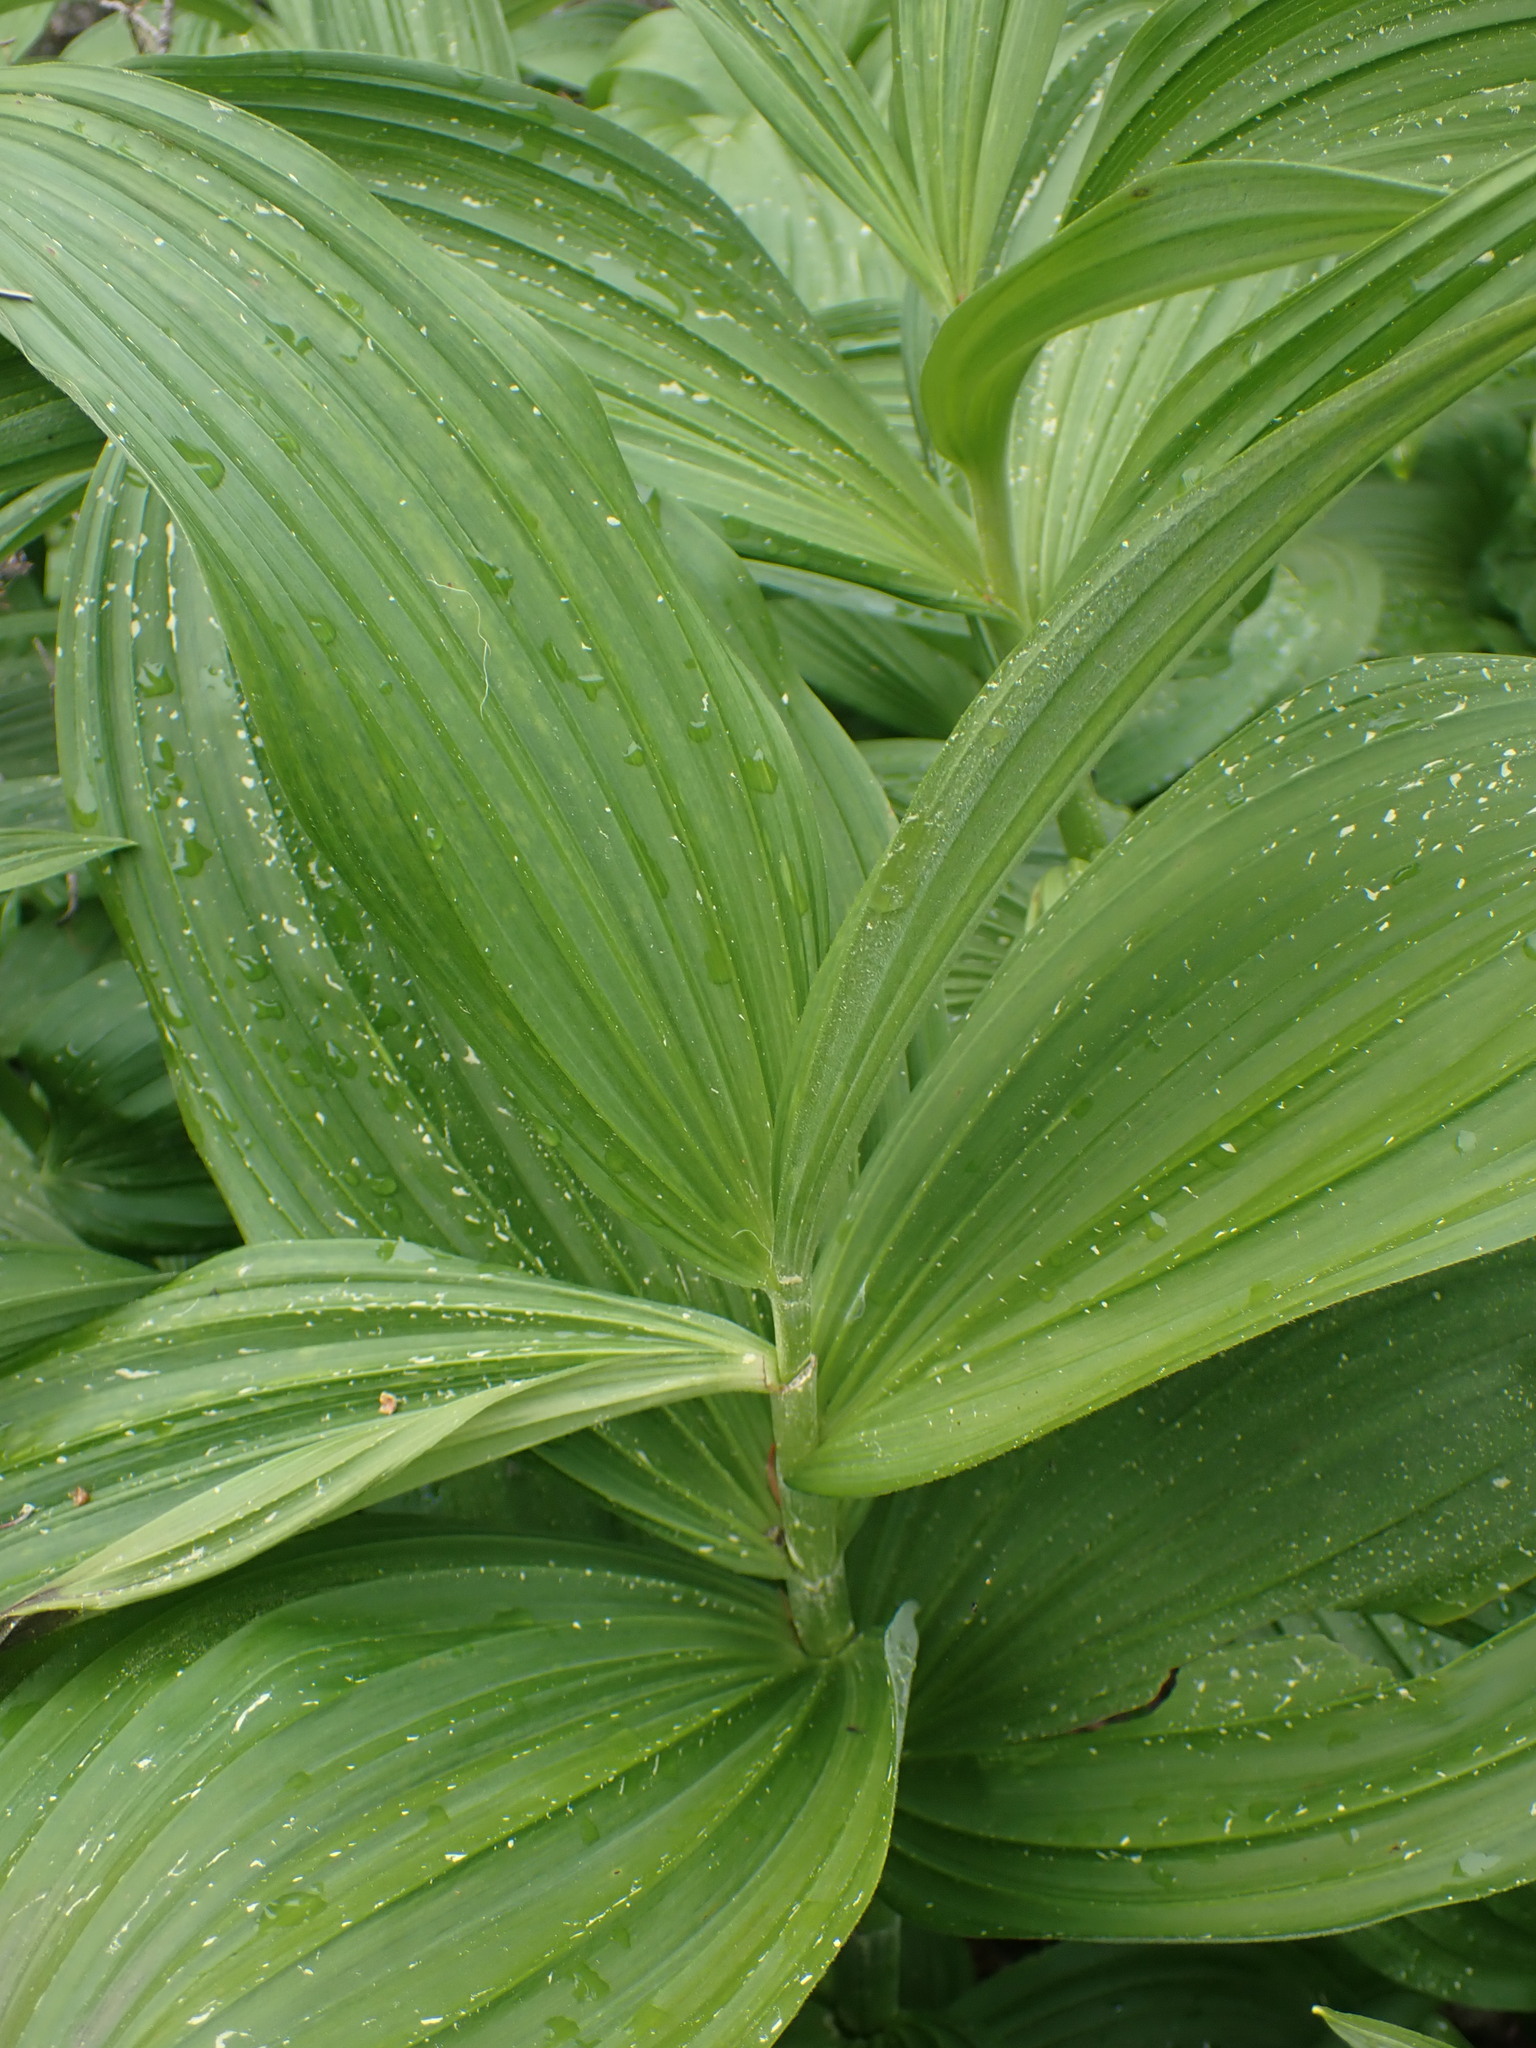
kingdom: Plantae
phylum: Tracheophyta
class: Liliopsida
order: Liliales
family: Melanthiaceae
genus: Veratrum
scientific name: Veratrum viride
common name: American false hellebore
